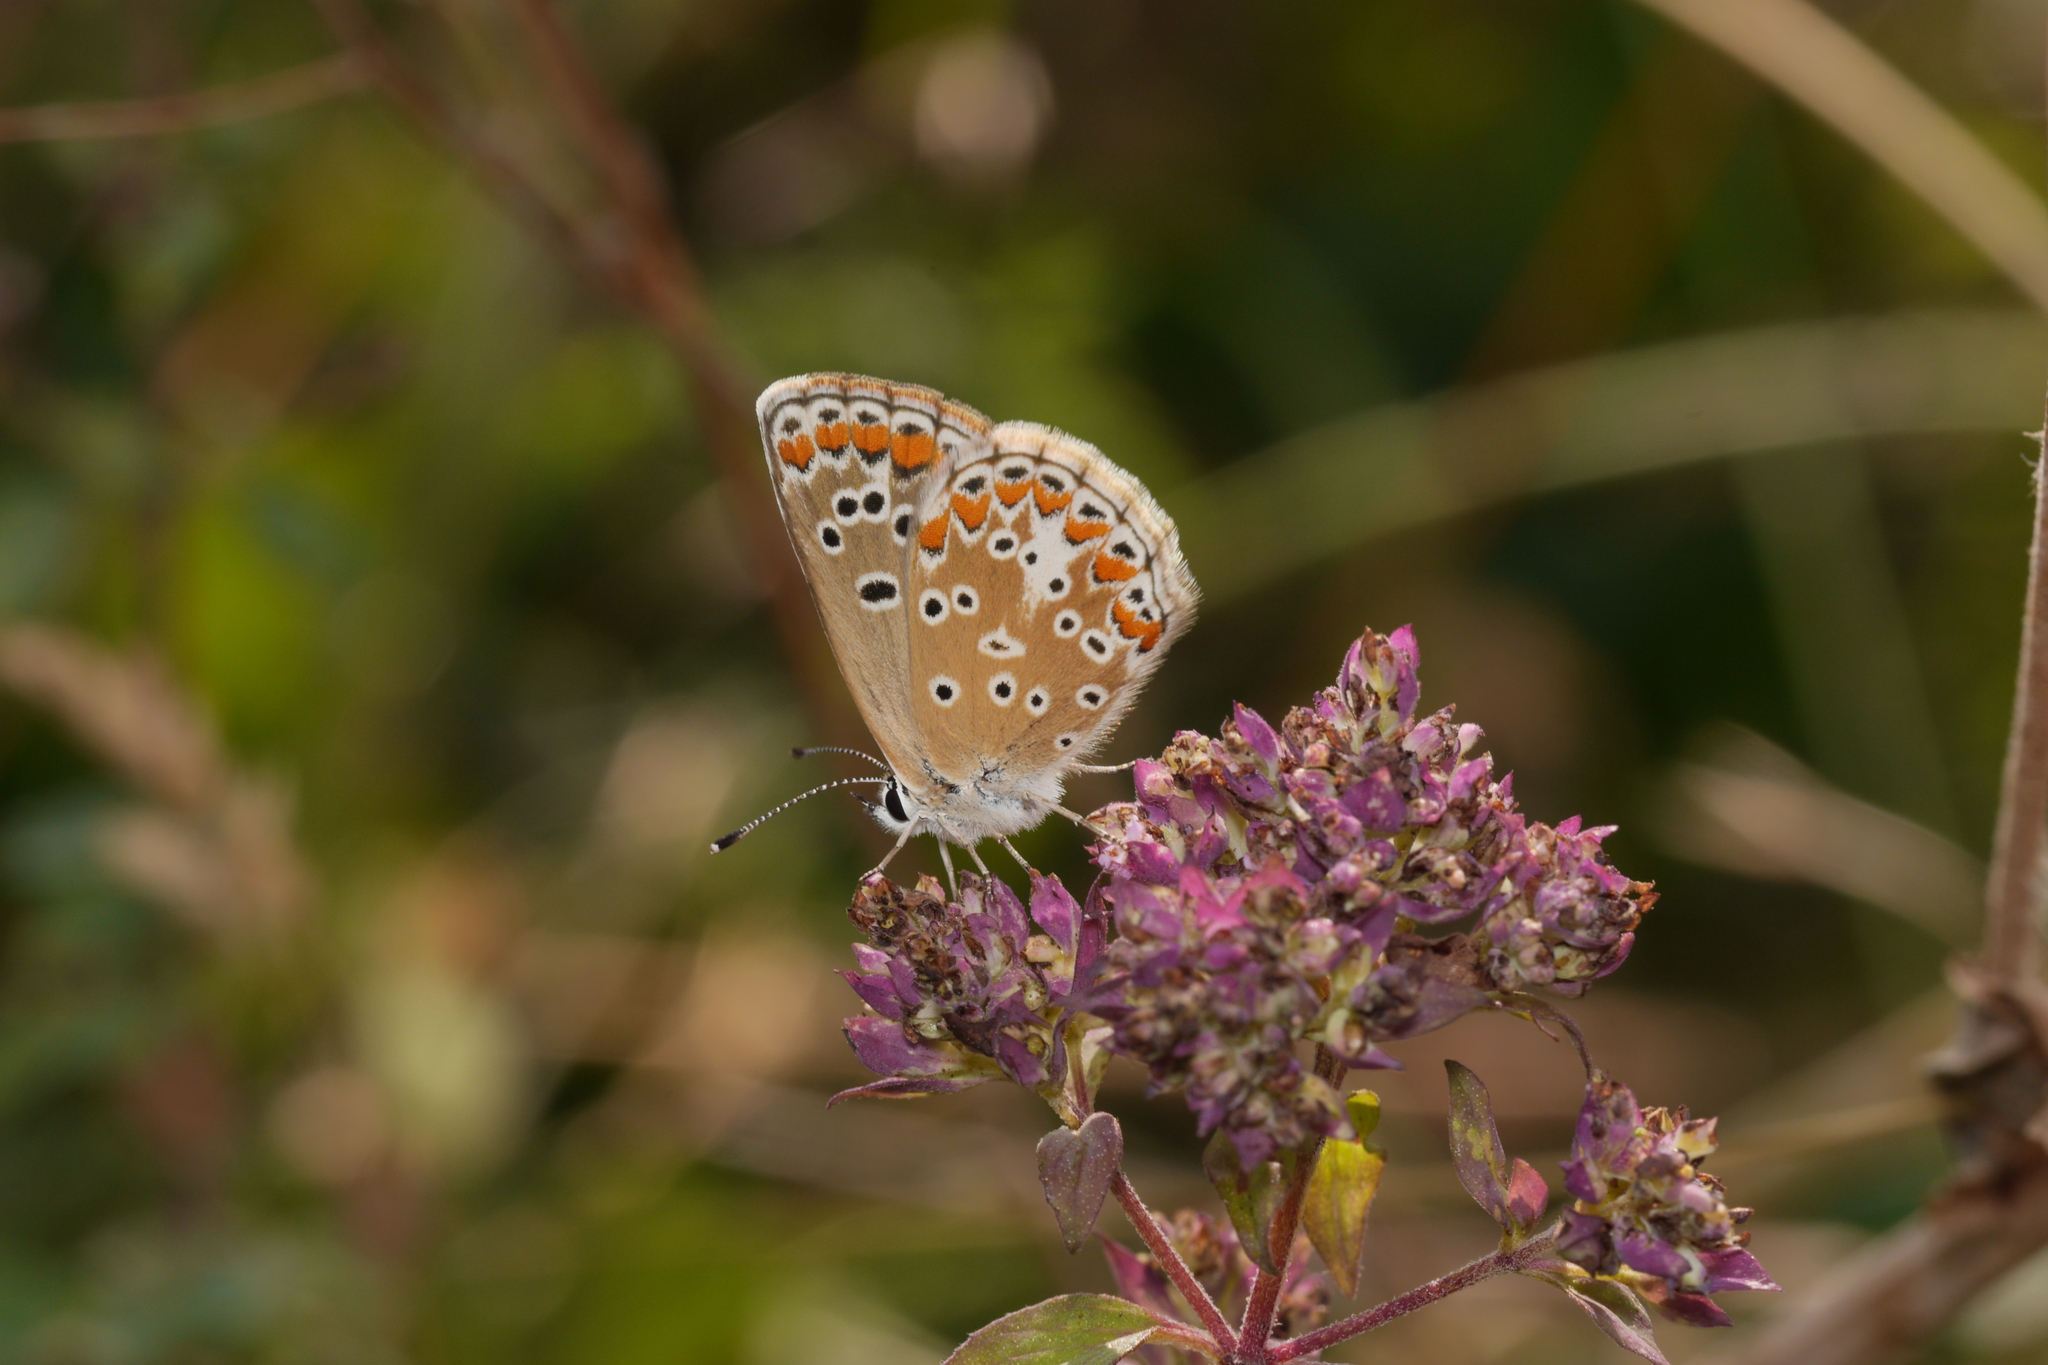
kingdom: Animalia
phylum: Arthropoda
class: Insecta
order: Lepidoptera
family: Lycaenidae
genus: Aricia
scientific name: Aricia agestis
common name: Brown argus
